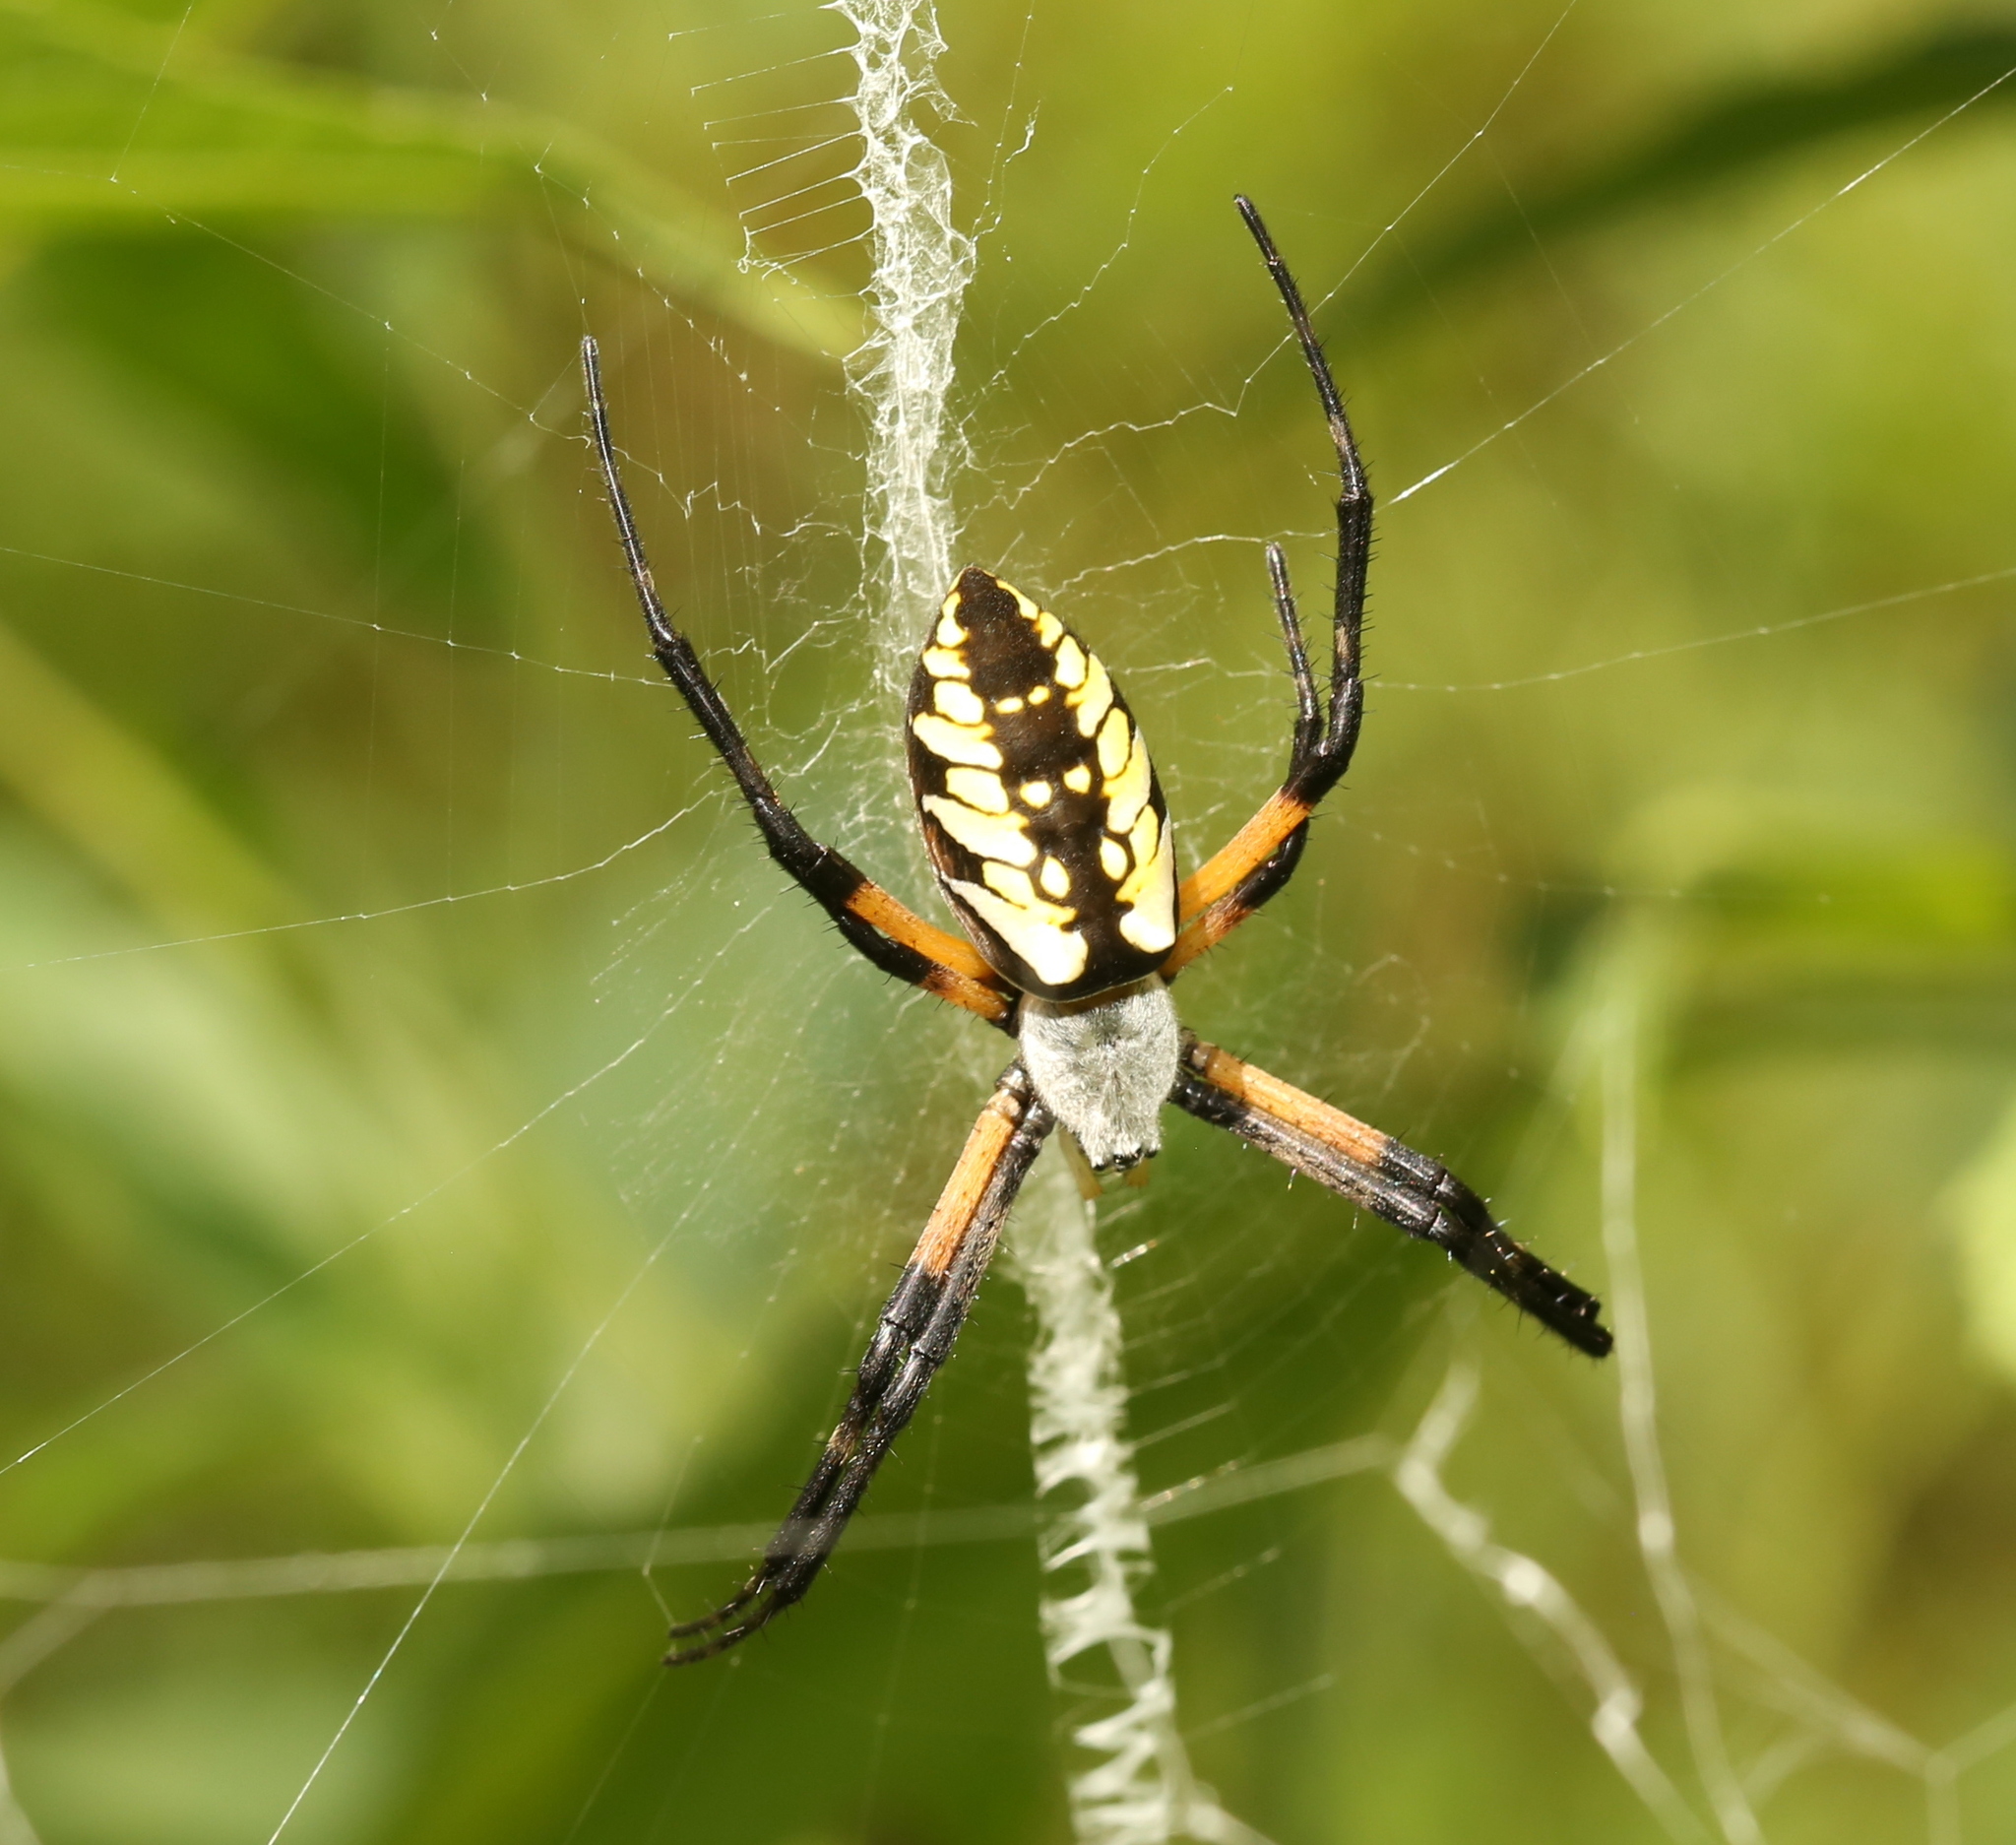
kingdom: Animalia
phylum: Arthropoda
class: Arachnida
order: Araneae
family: Araneidae
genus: Argiope
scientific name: Argiope aurantia
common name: Orb weavers
